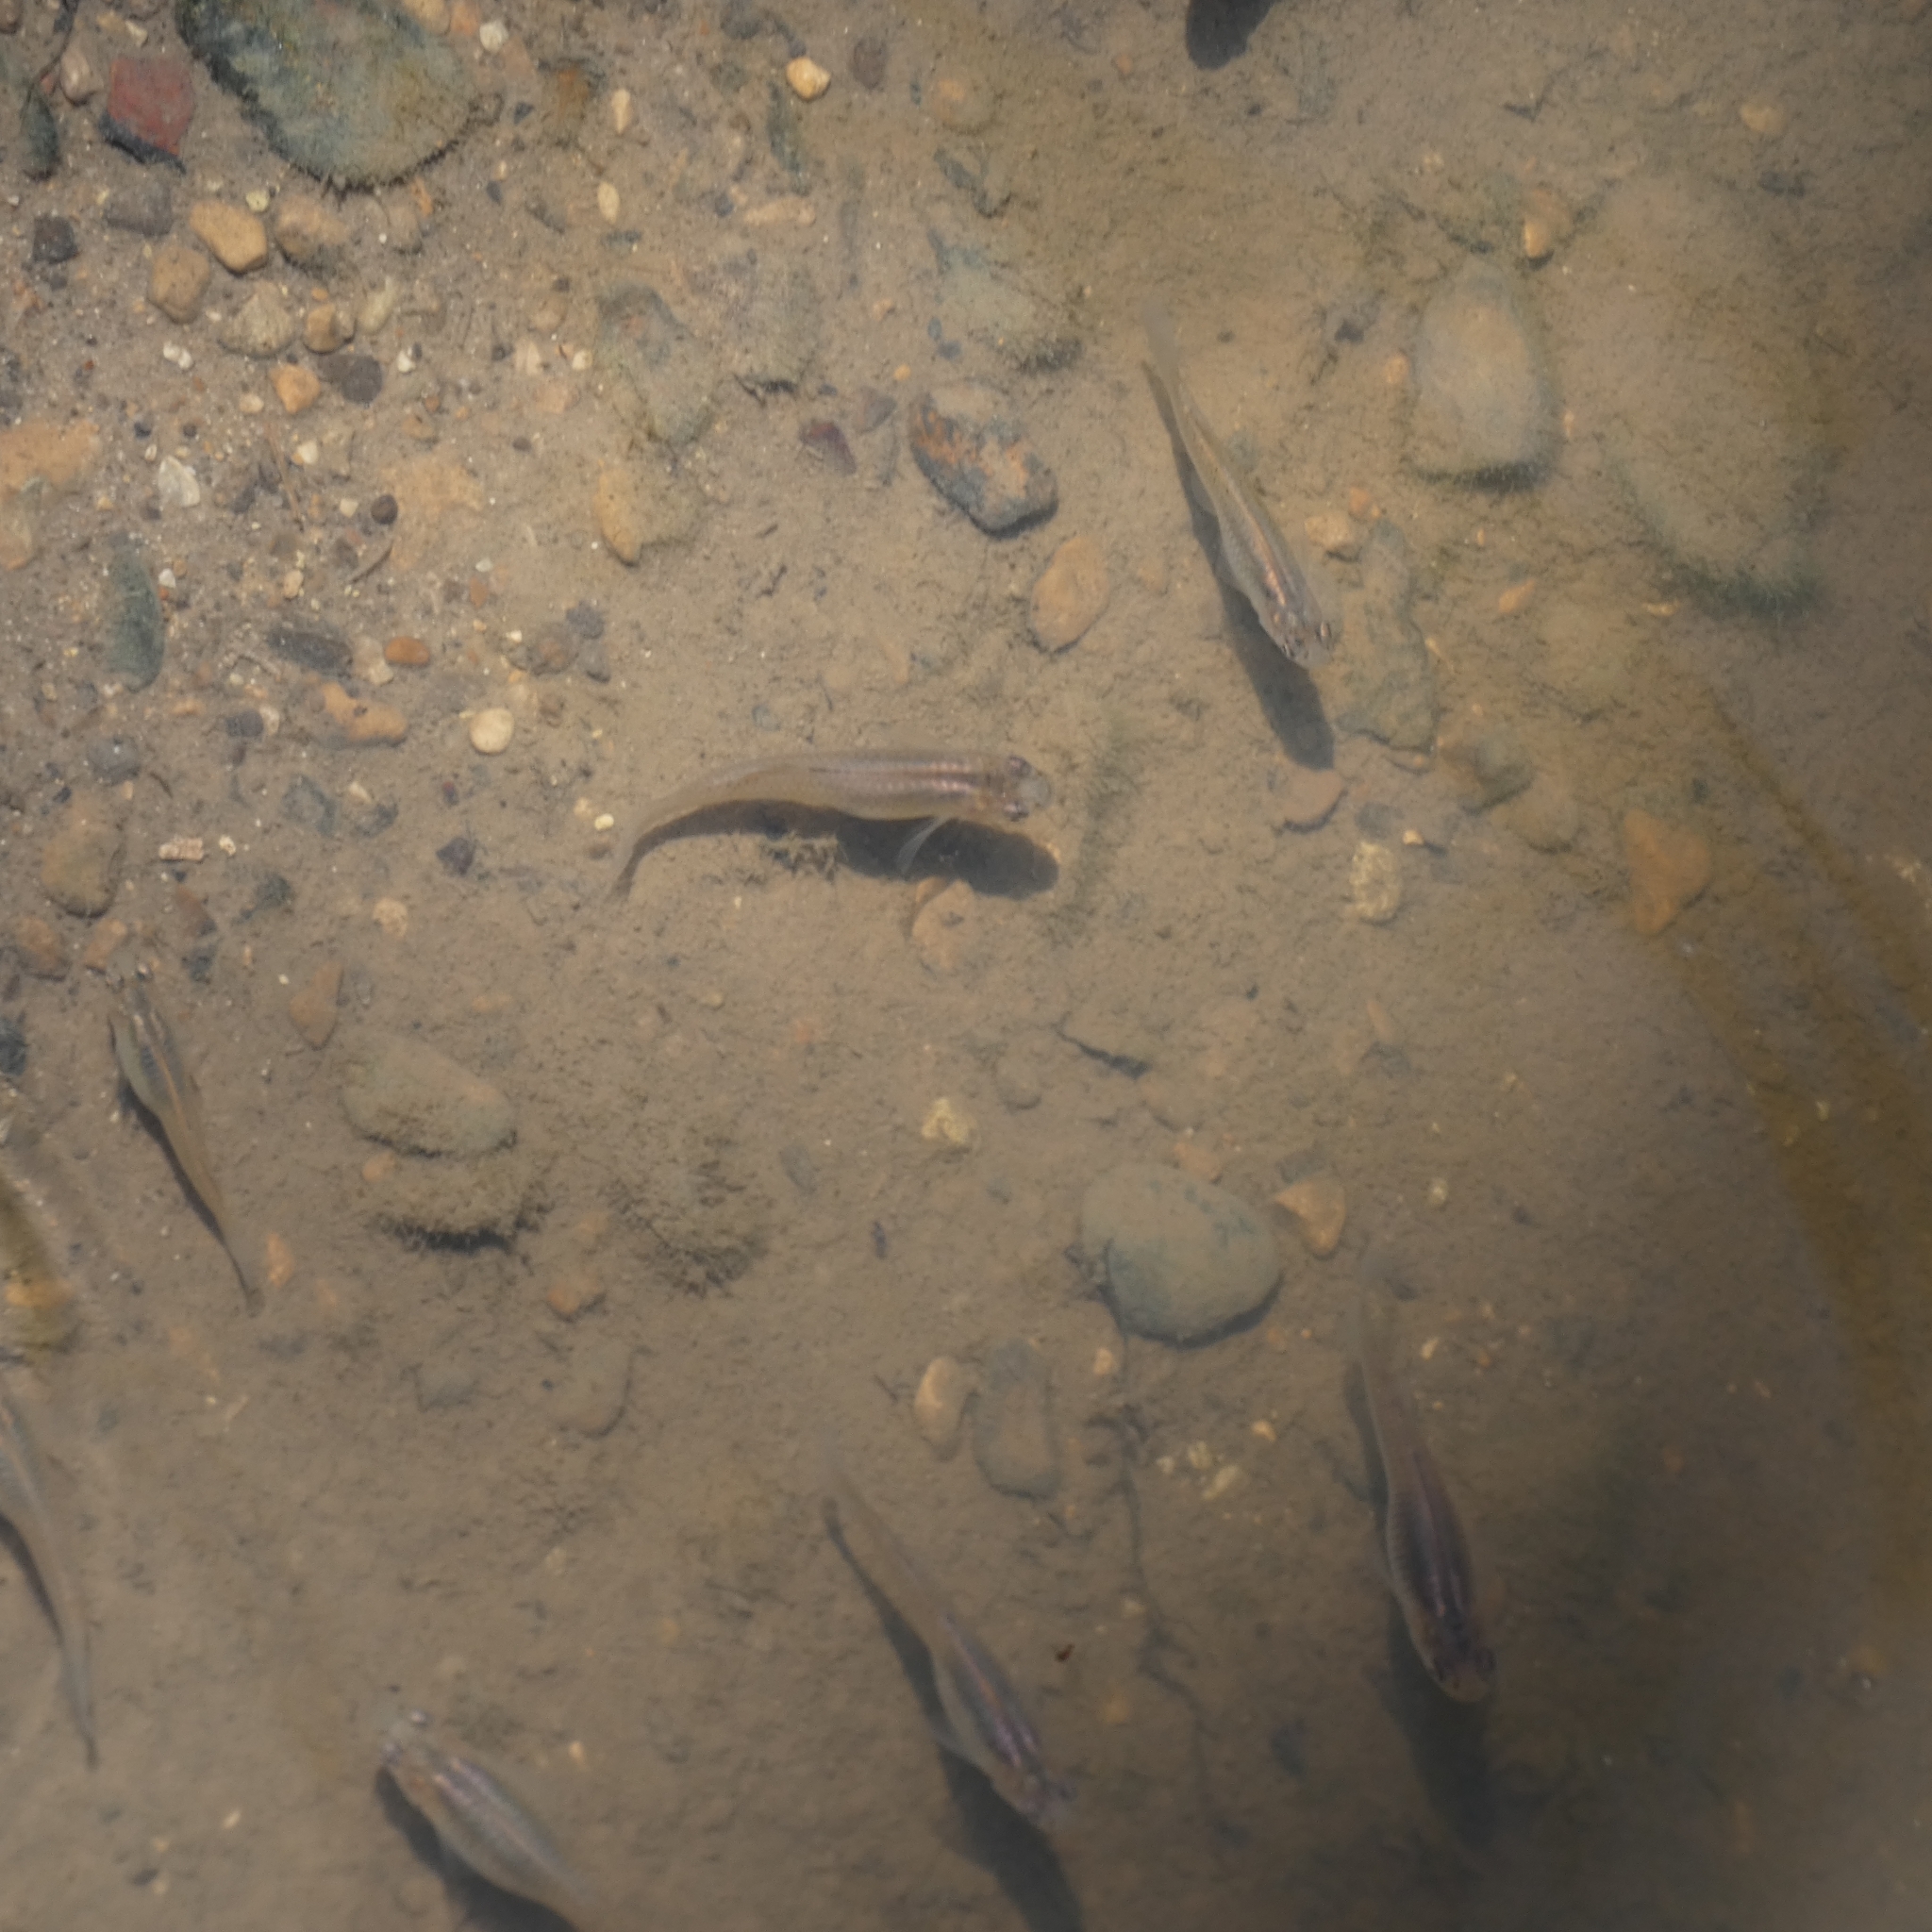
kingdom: Animalia
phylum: Chordata
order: Cyprinodontiformes
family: Poeciliidae
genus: Gambusia
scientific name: Gambusia affinis
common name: Mosquitofish
